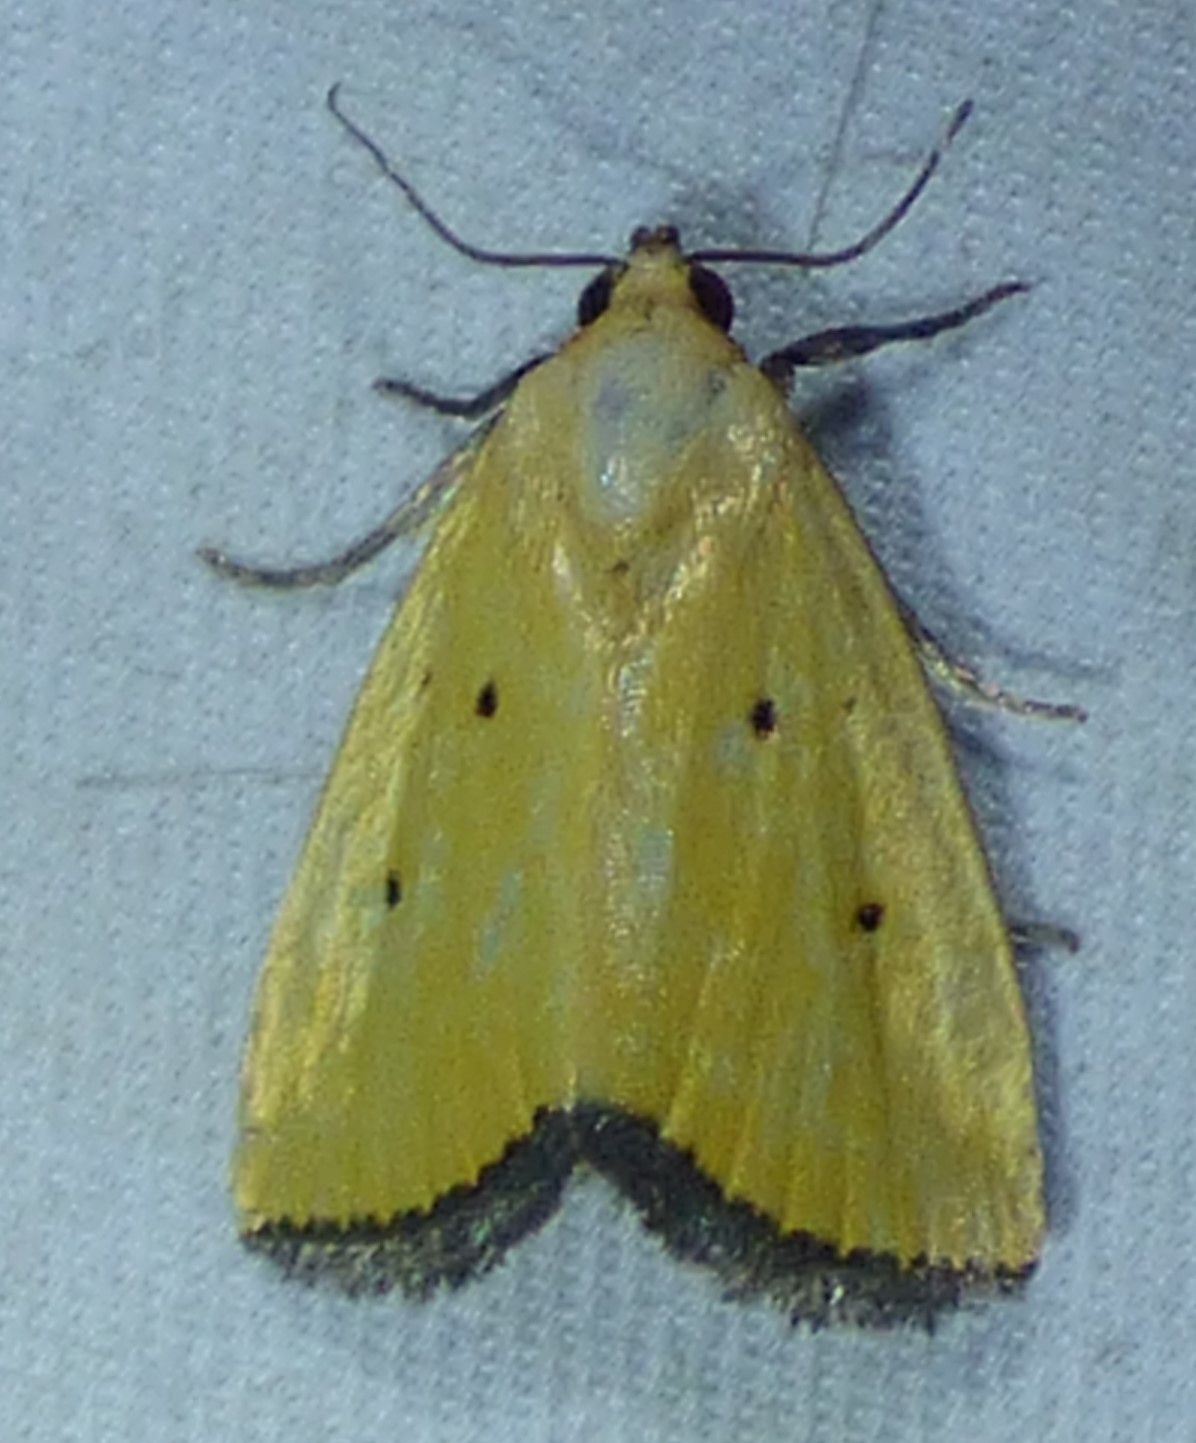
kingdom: Animalia
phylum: Arthropoda
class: Insecta
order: Lepidoptera
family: Noctuidae
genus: Marimatha
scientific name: Marimatha nigrofimbria
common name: Black-bordered lemon moth
